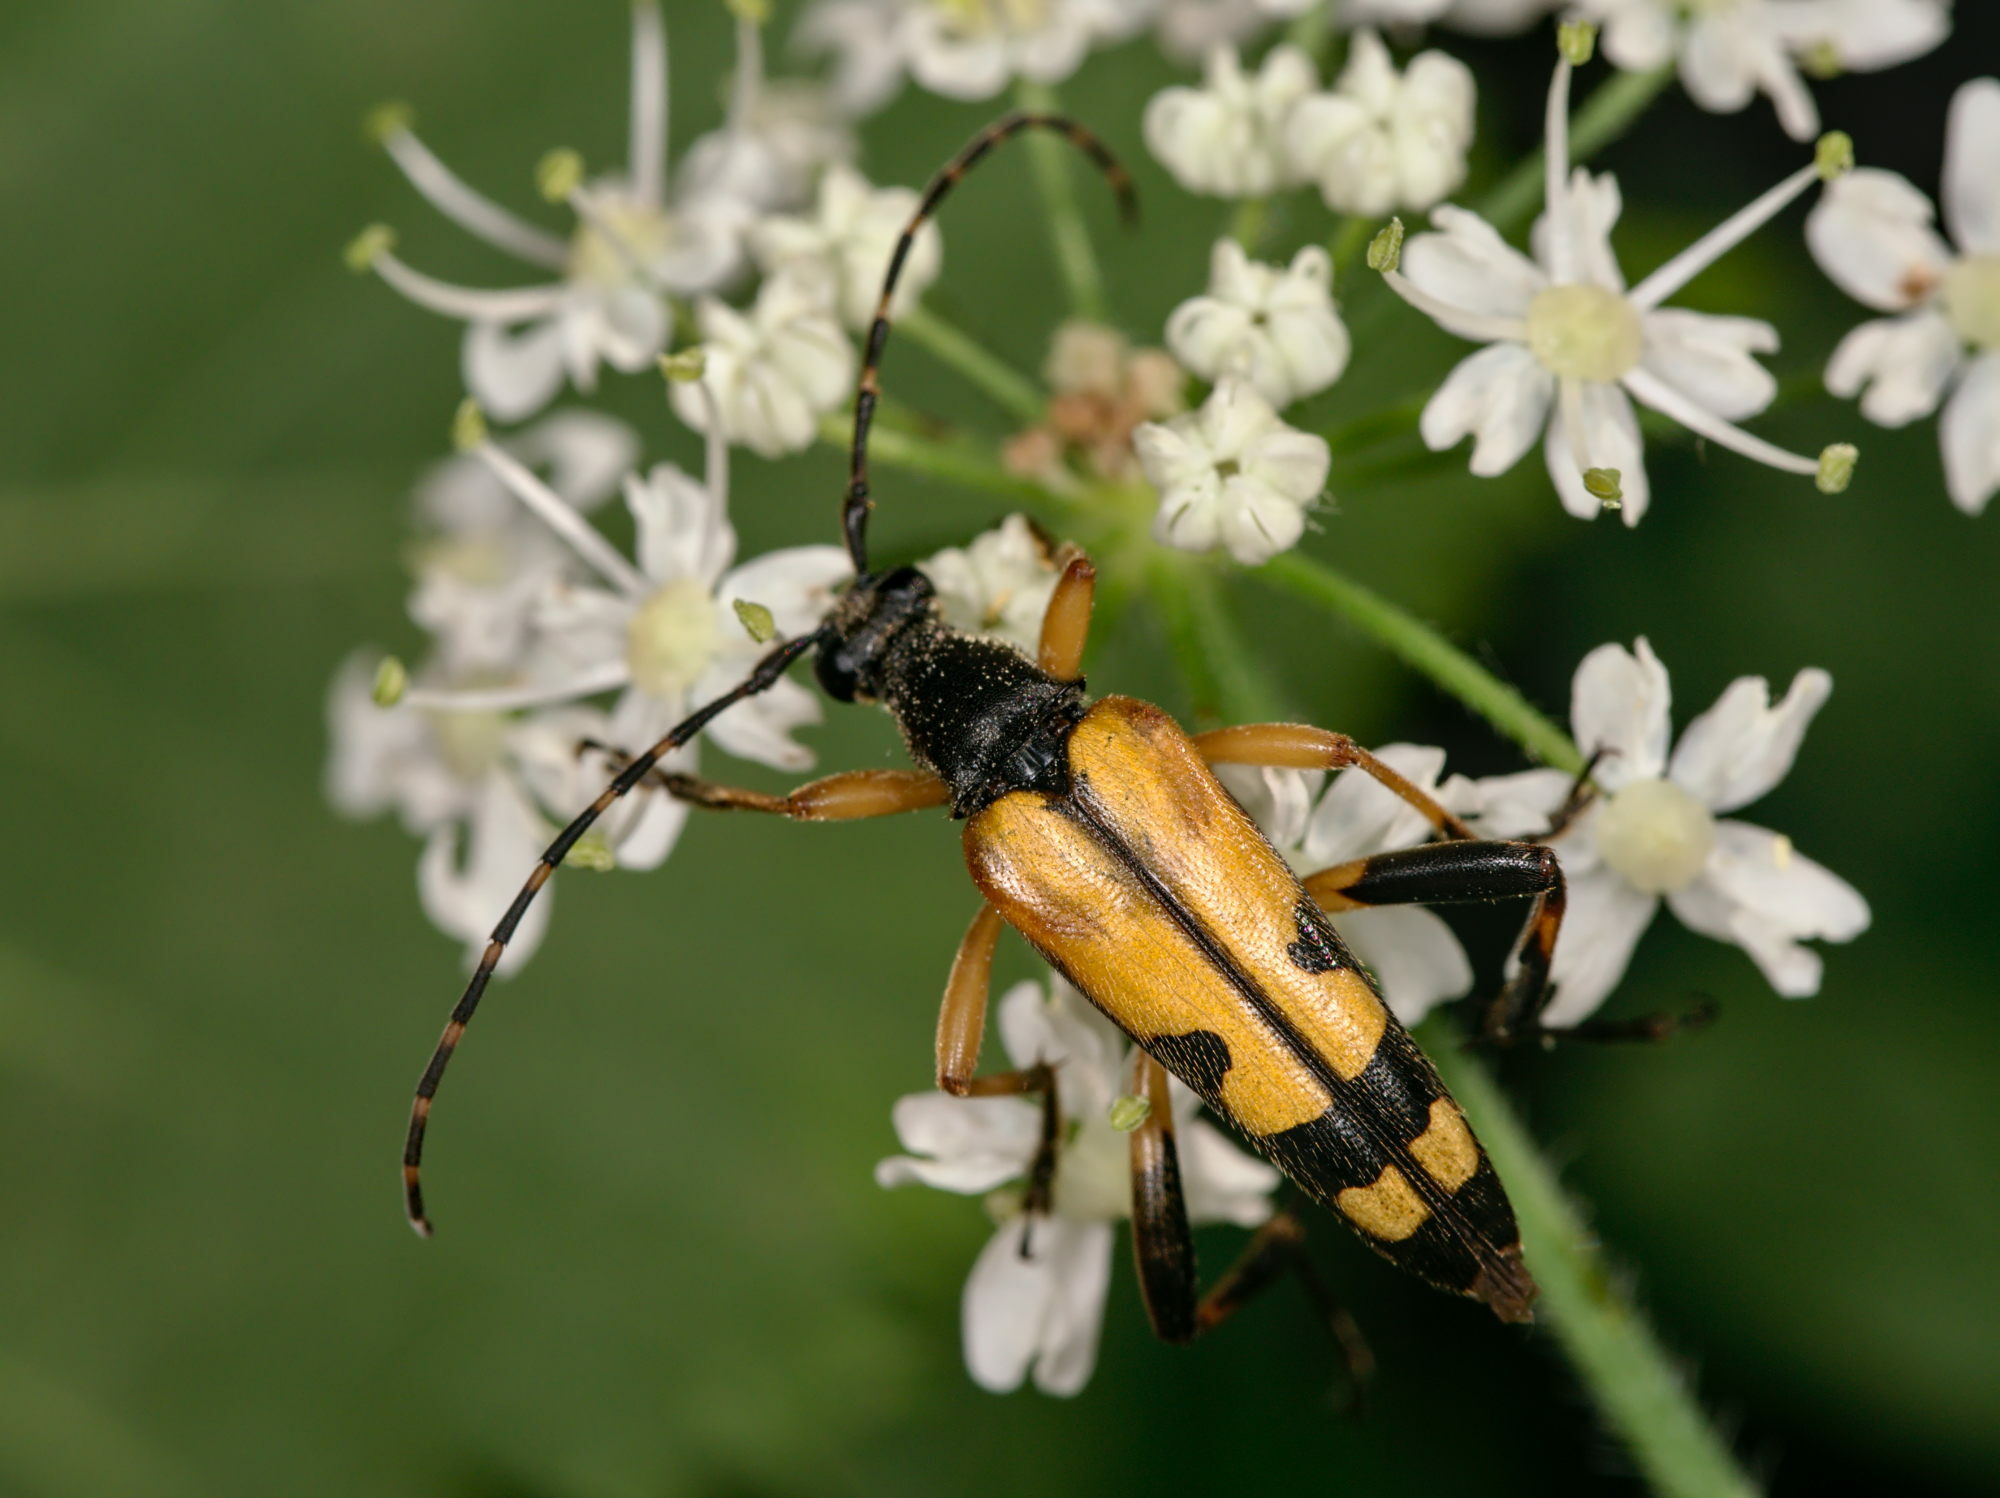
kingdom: Animalia
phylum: Arthropoda
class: Insecta
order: Coleoptera
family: Cerambycidae
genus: Rutpela
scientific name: Rutpela maculata
